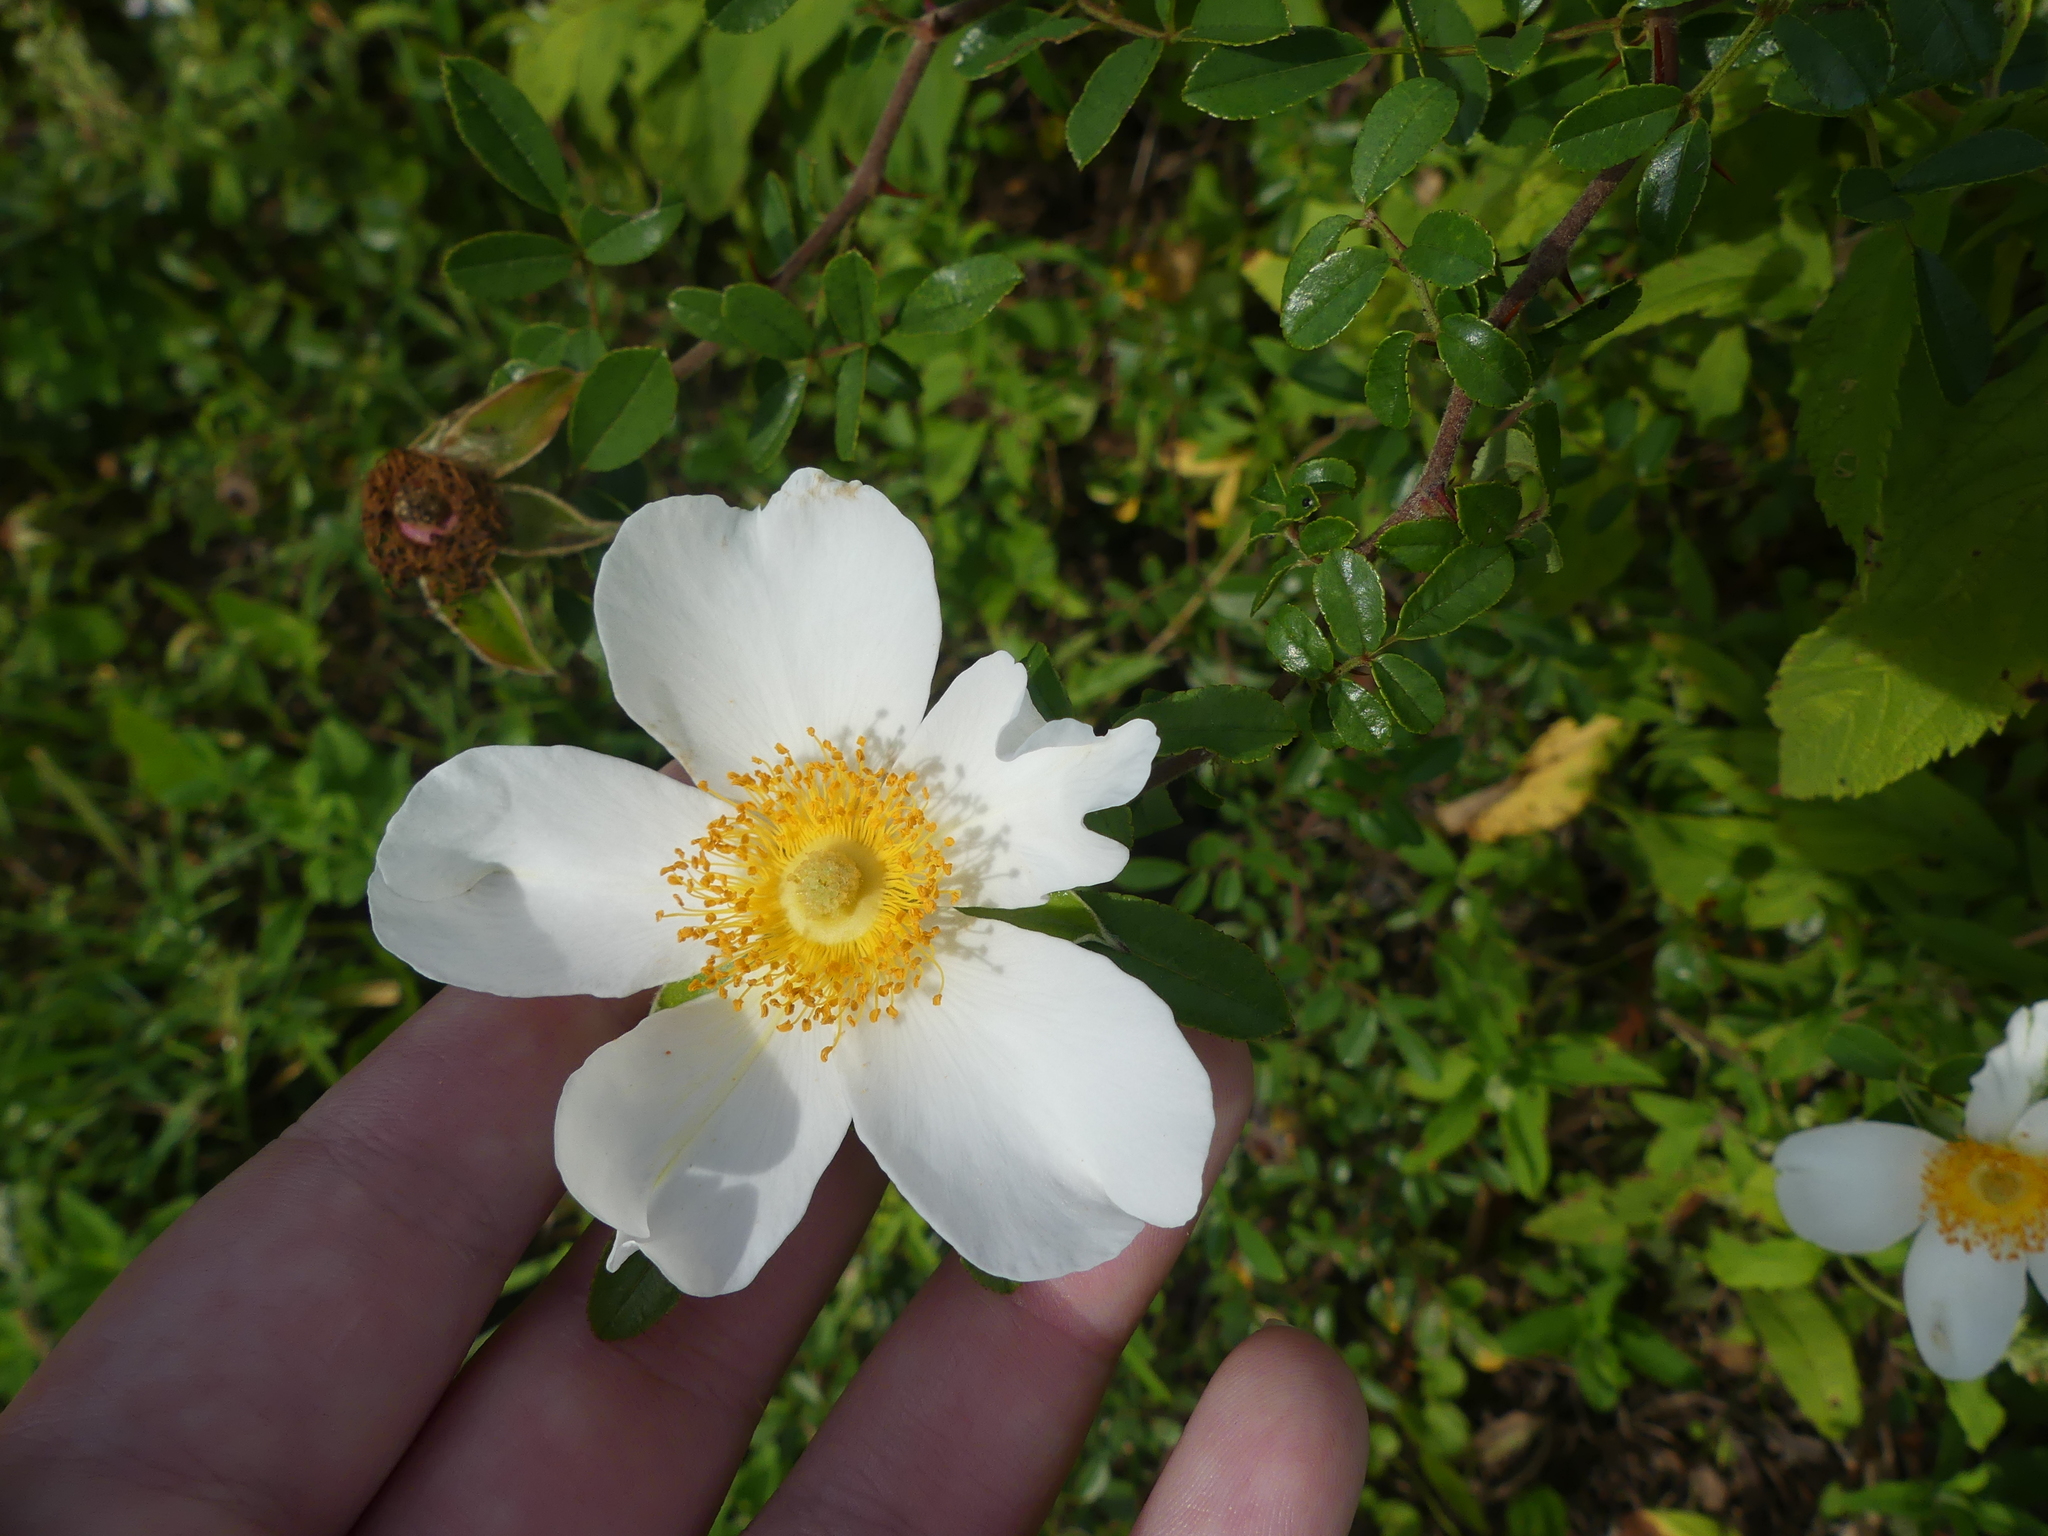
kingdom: Plantae
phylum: Tracheophyta
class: Magnoliopsida
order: Rosales
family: Rosaceae
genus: Rosa
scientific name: Rosa bracteata
